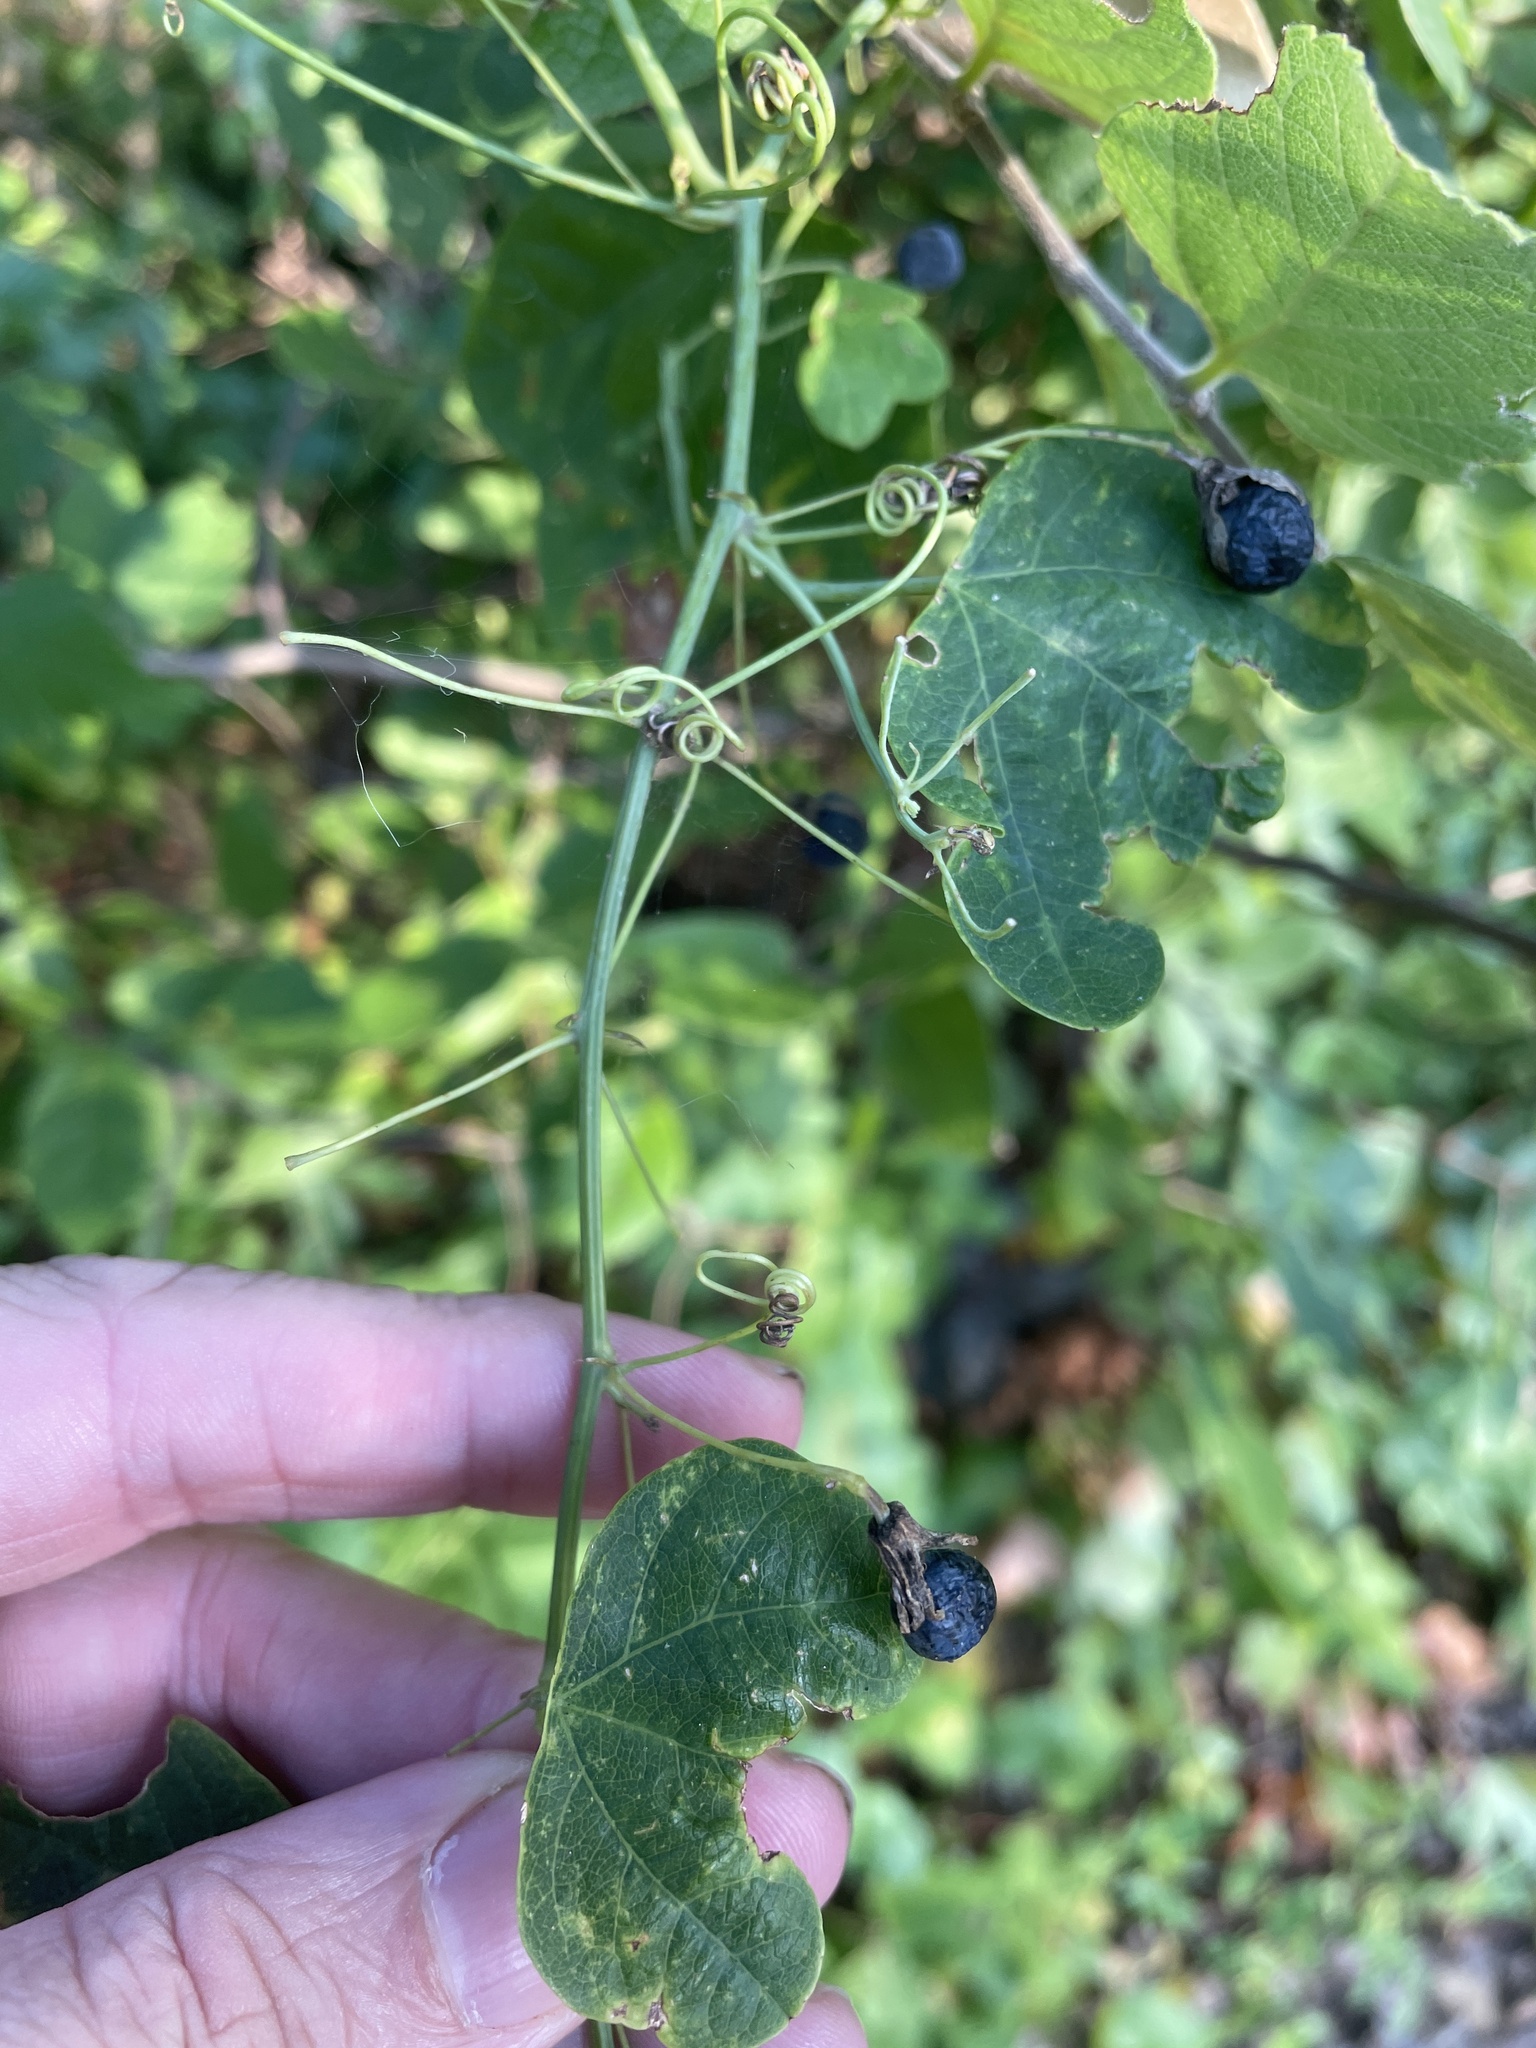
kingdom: Plantae
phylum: Tracheophyta
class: Magnoliopsida
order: Malpighiales
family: Passifloraceae
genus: Passiflora
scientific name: Passiflora lutea
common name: Yellow passionflower
